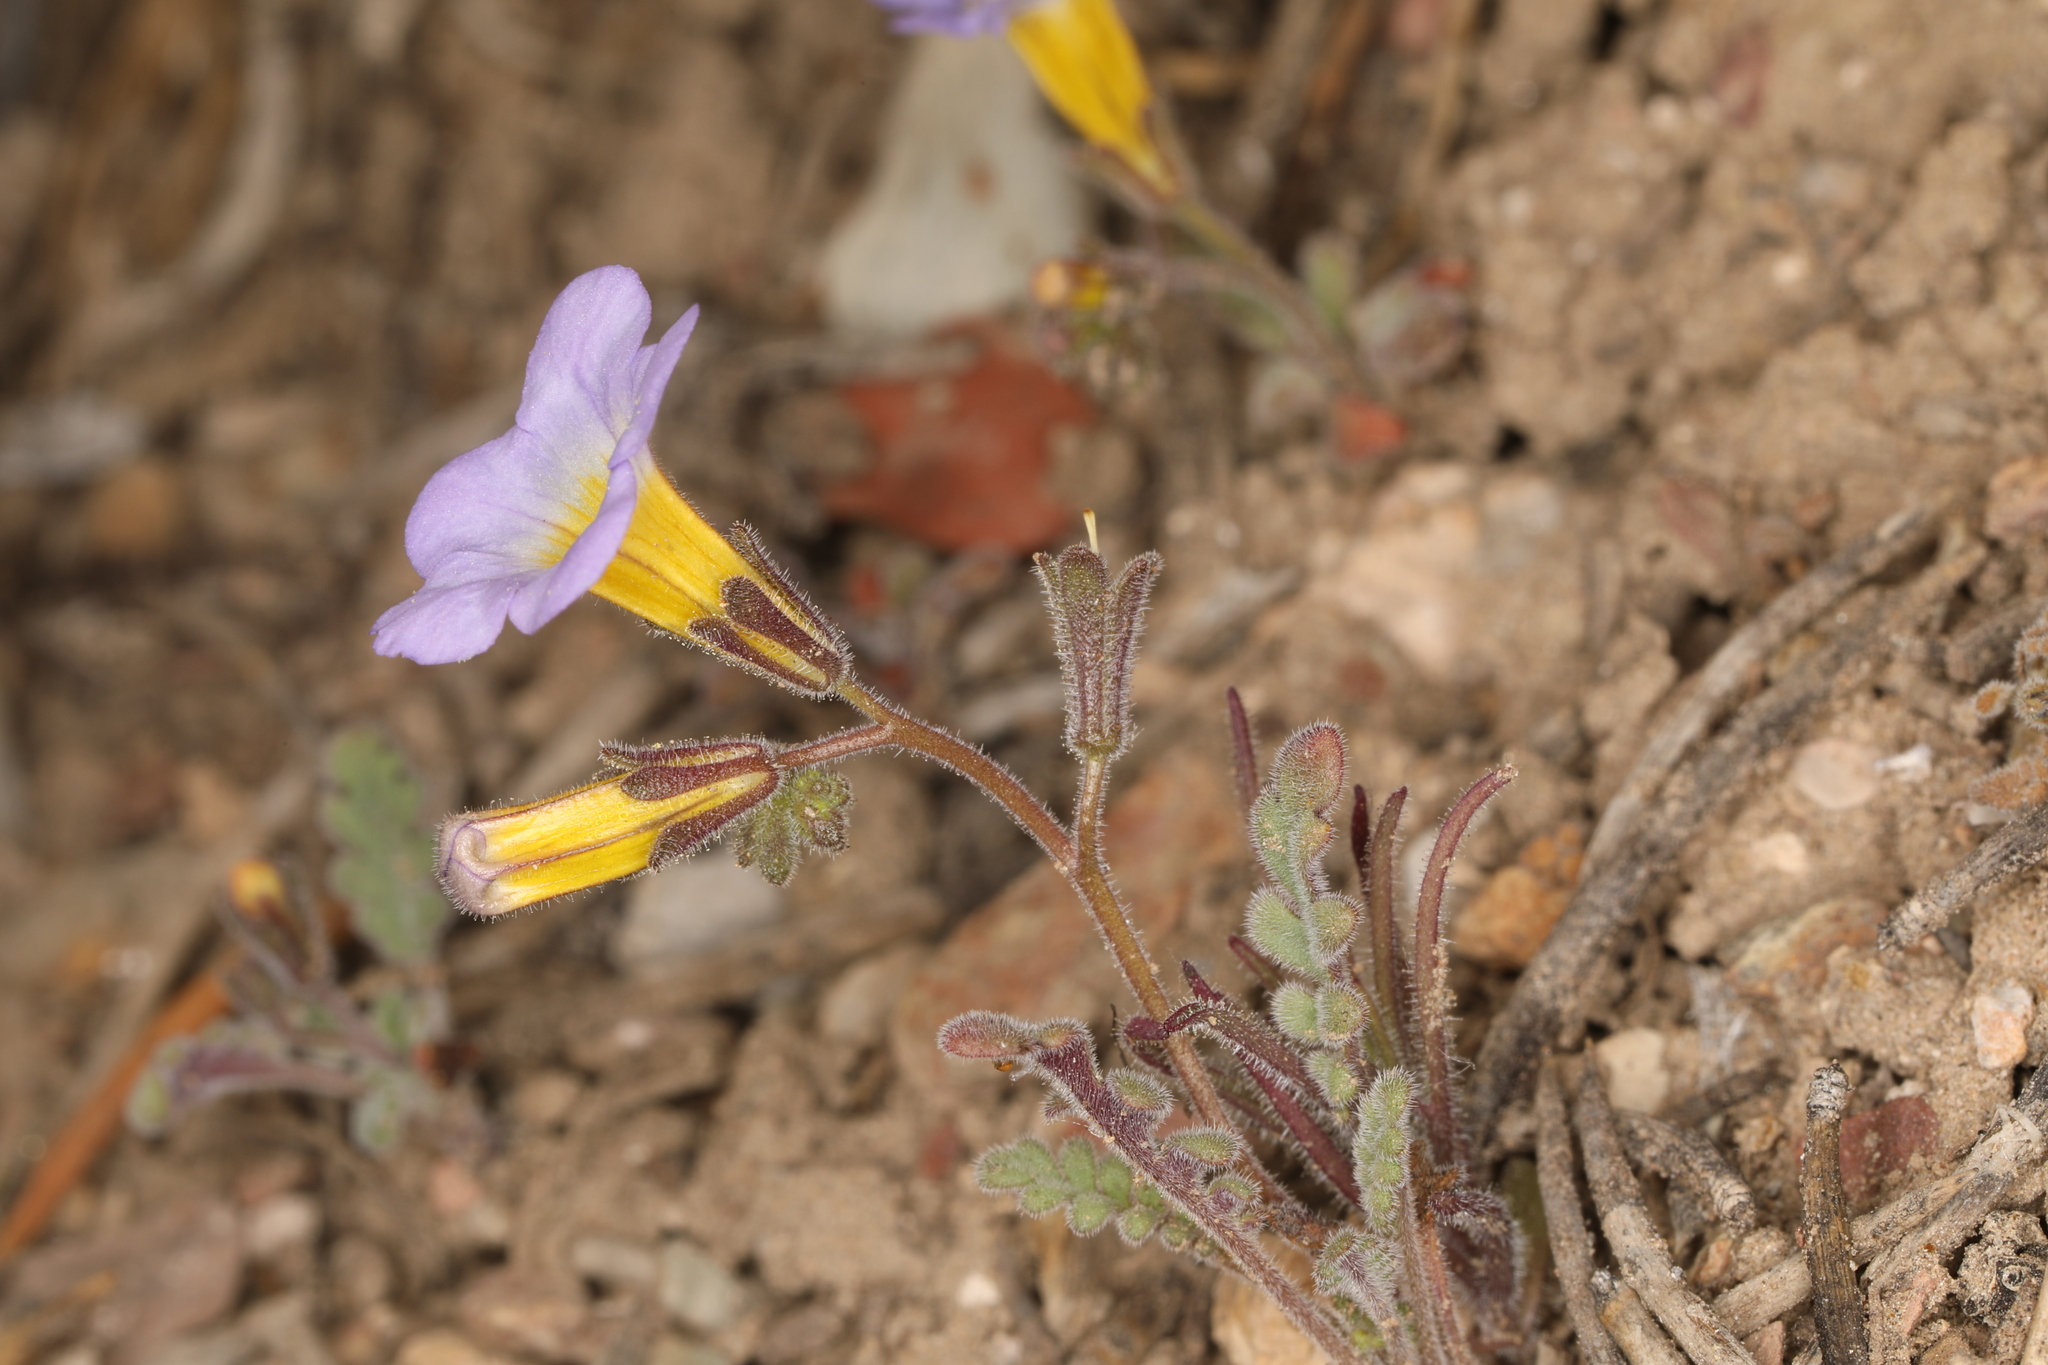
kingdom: Plantae
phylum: Tracheophyta
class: Magnoliopsida
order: Boraginales
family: Hydrophyllaceae
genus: Phacelia
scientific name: Phacelia fremontii
